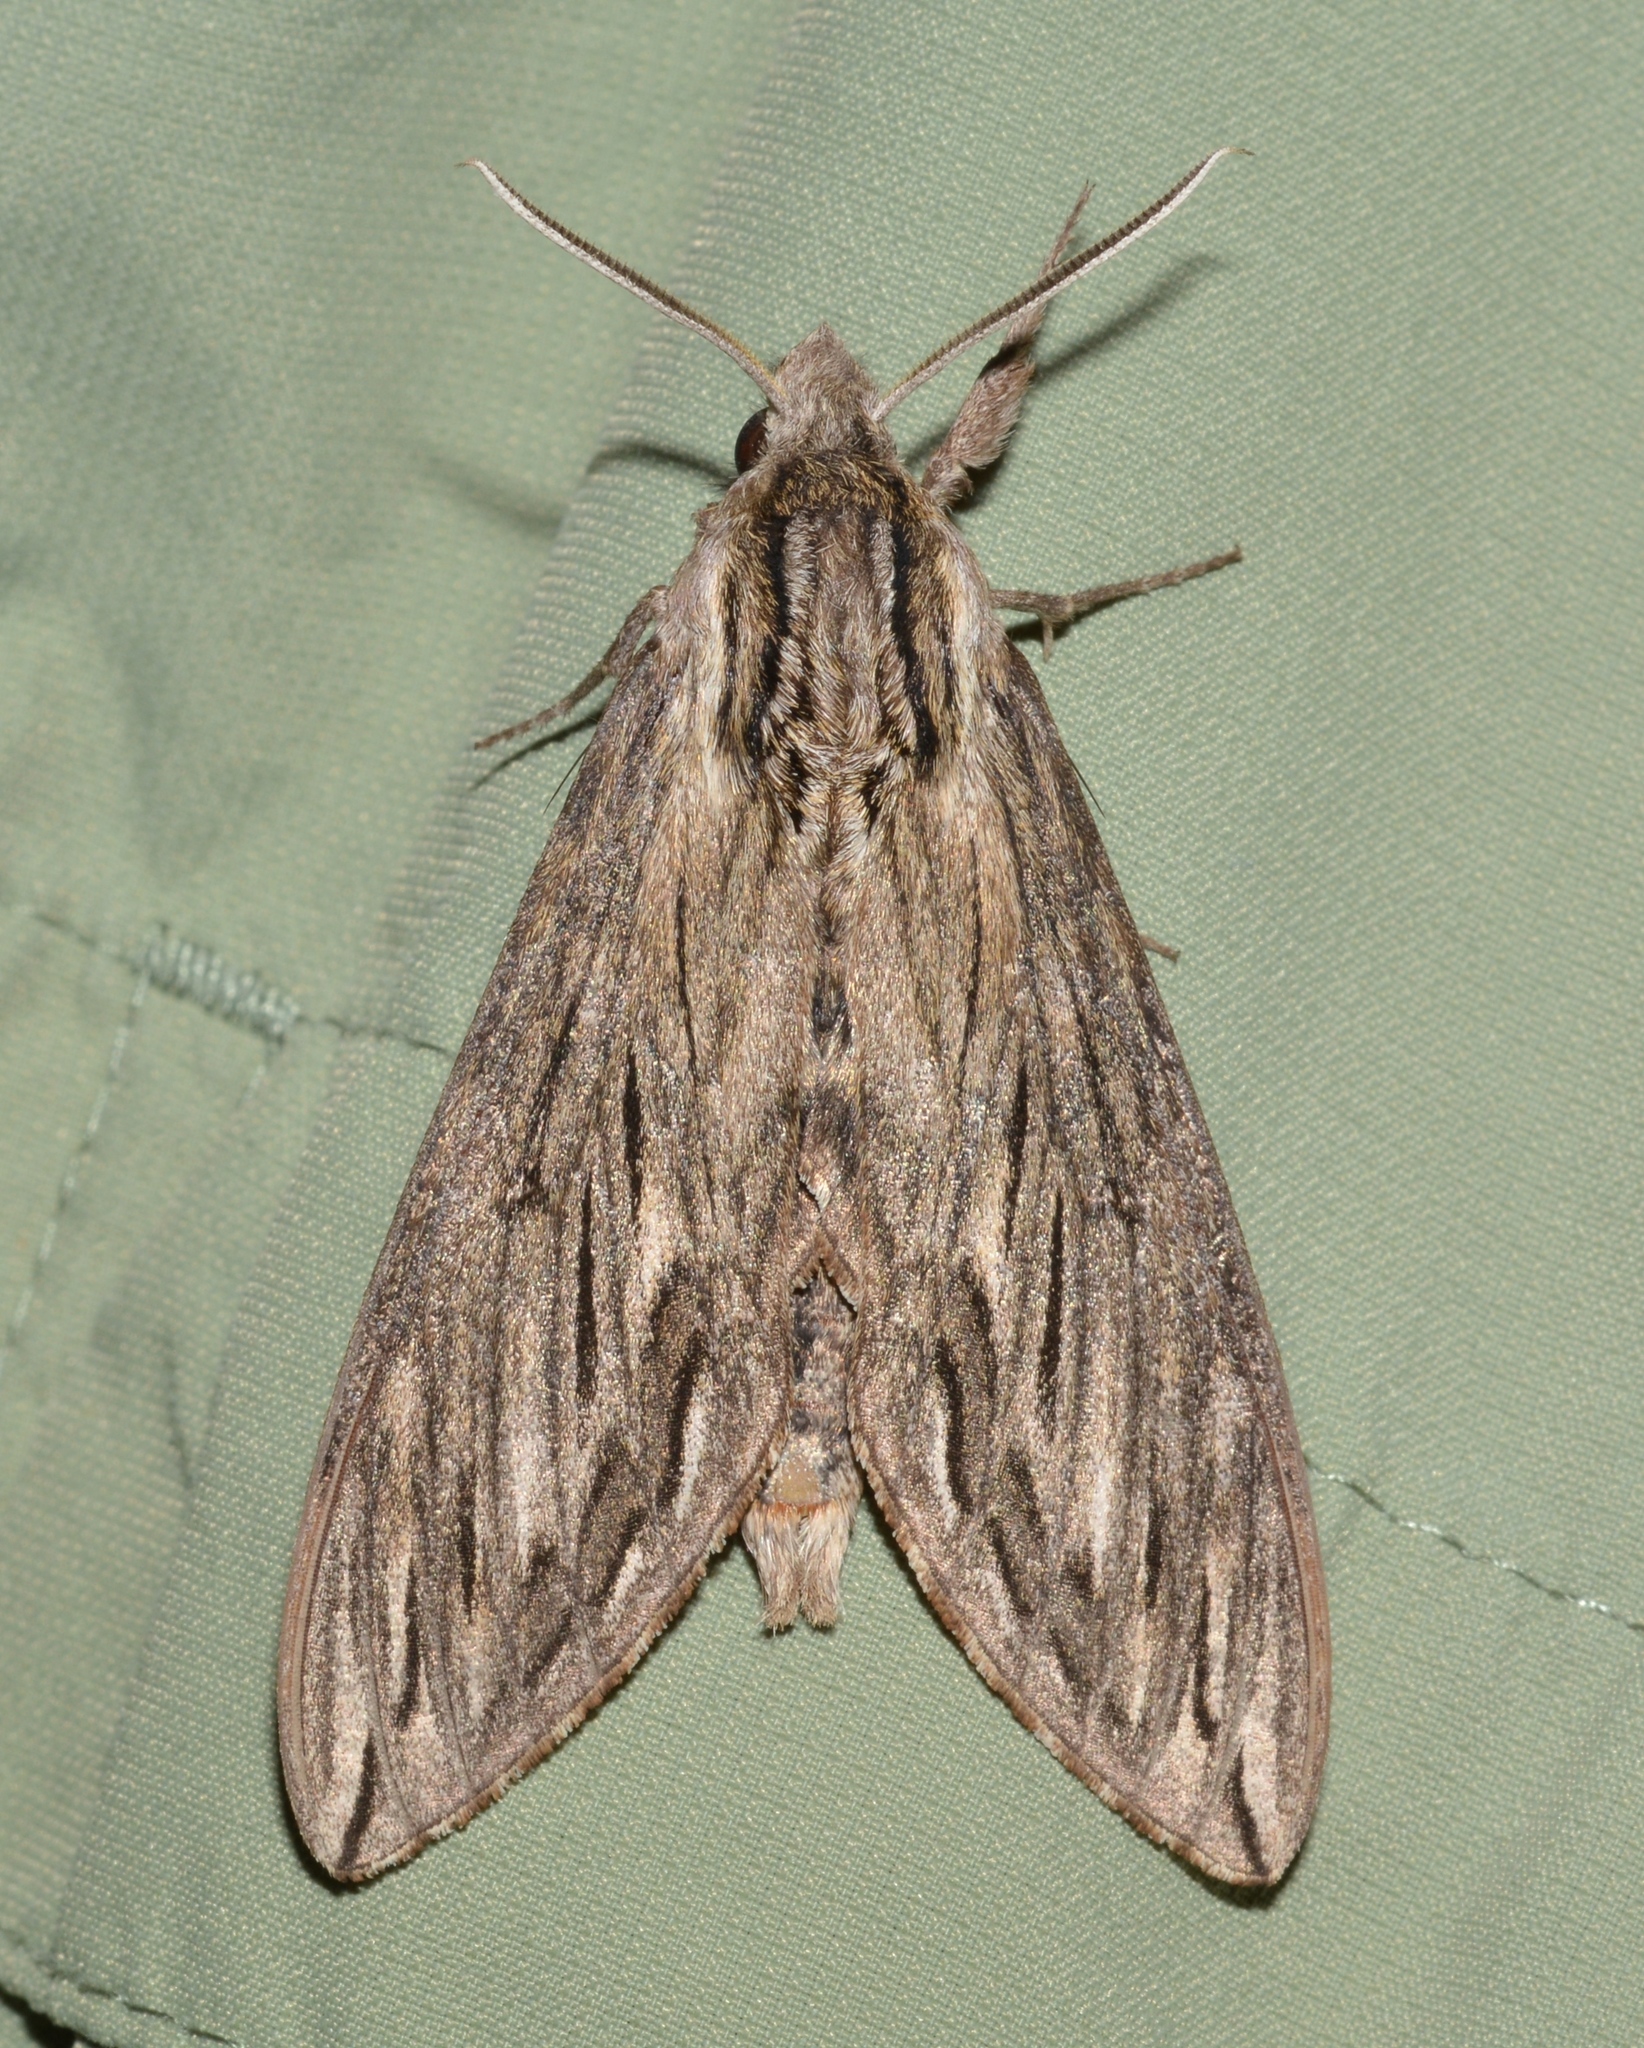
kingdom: Animalia
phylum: Arthropoda
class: Insecta
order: Lepidoptera
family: Sphingidae
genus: Sphinx
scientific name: Sphinx canadensis
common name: Canadian sphinx
